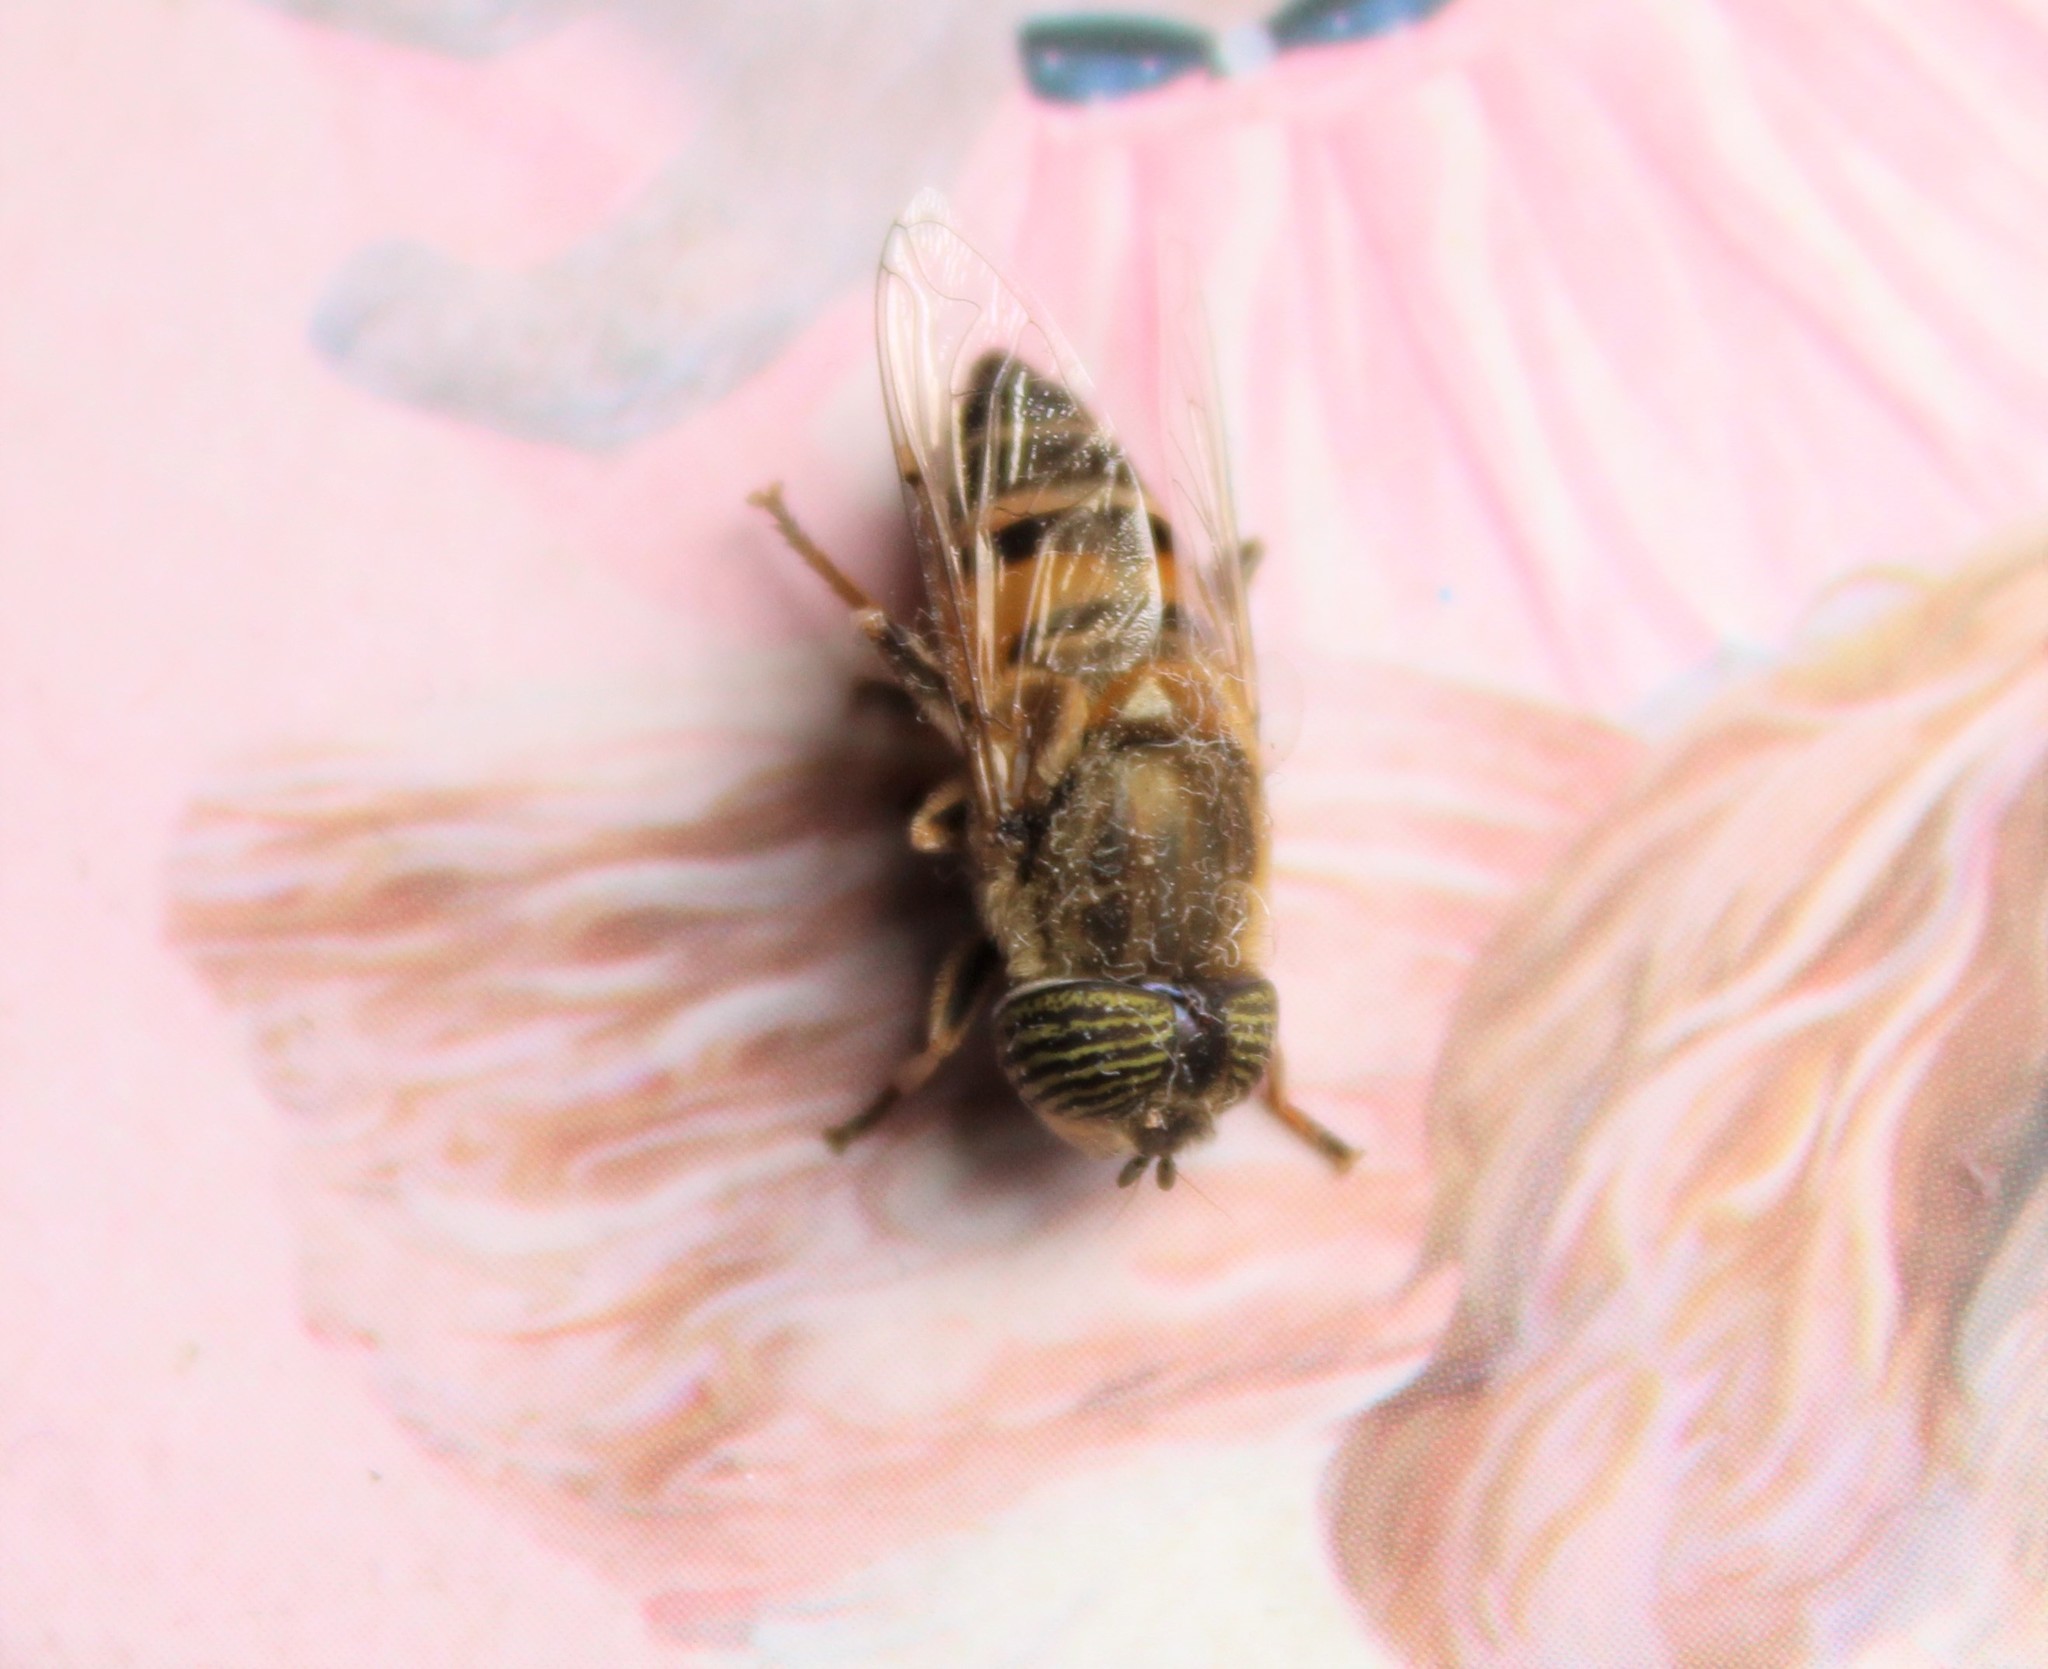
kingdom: Animalia
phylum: Arthropoda
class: Insecta
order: Diptera
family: Syrphidae
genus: Eristalinus
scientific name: Eristalinus taeniops
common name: Syrphid fly
